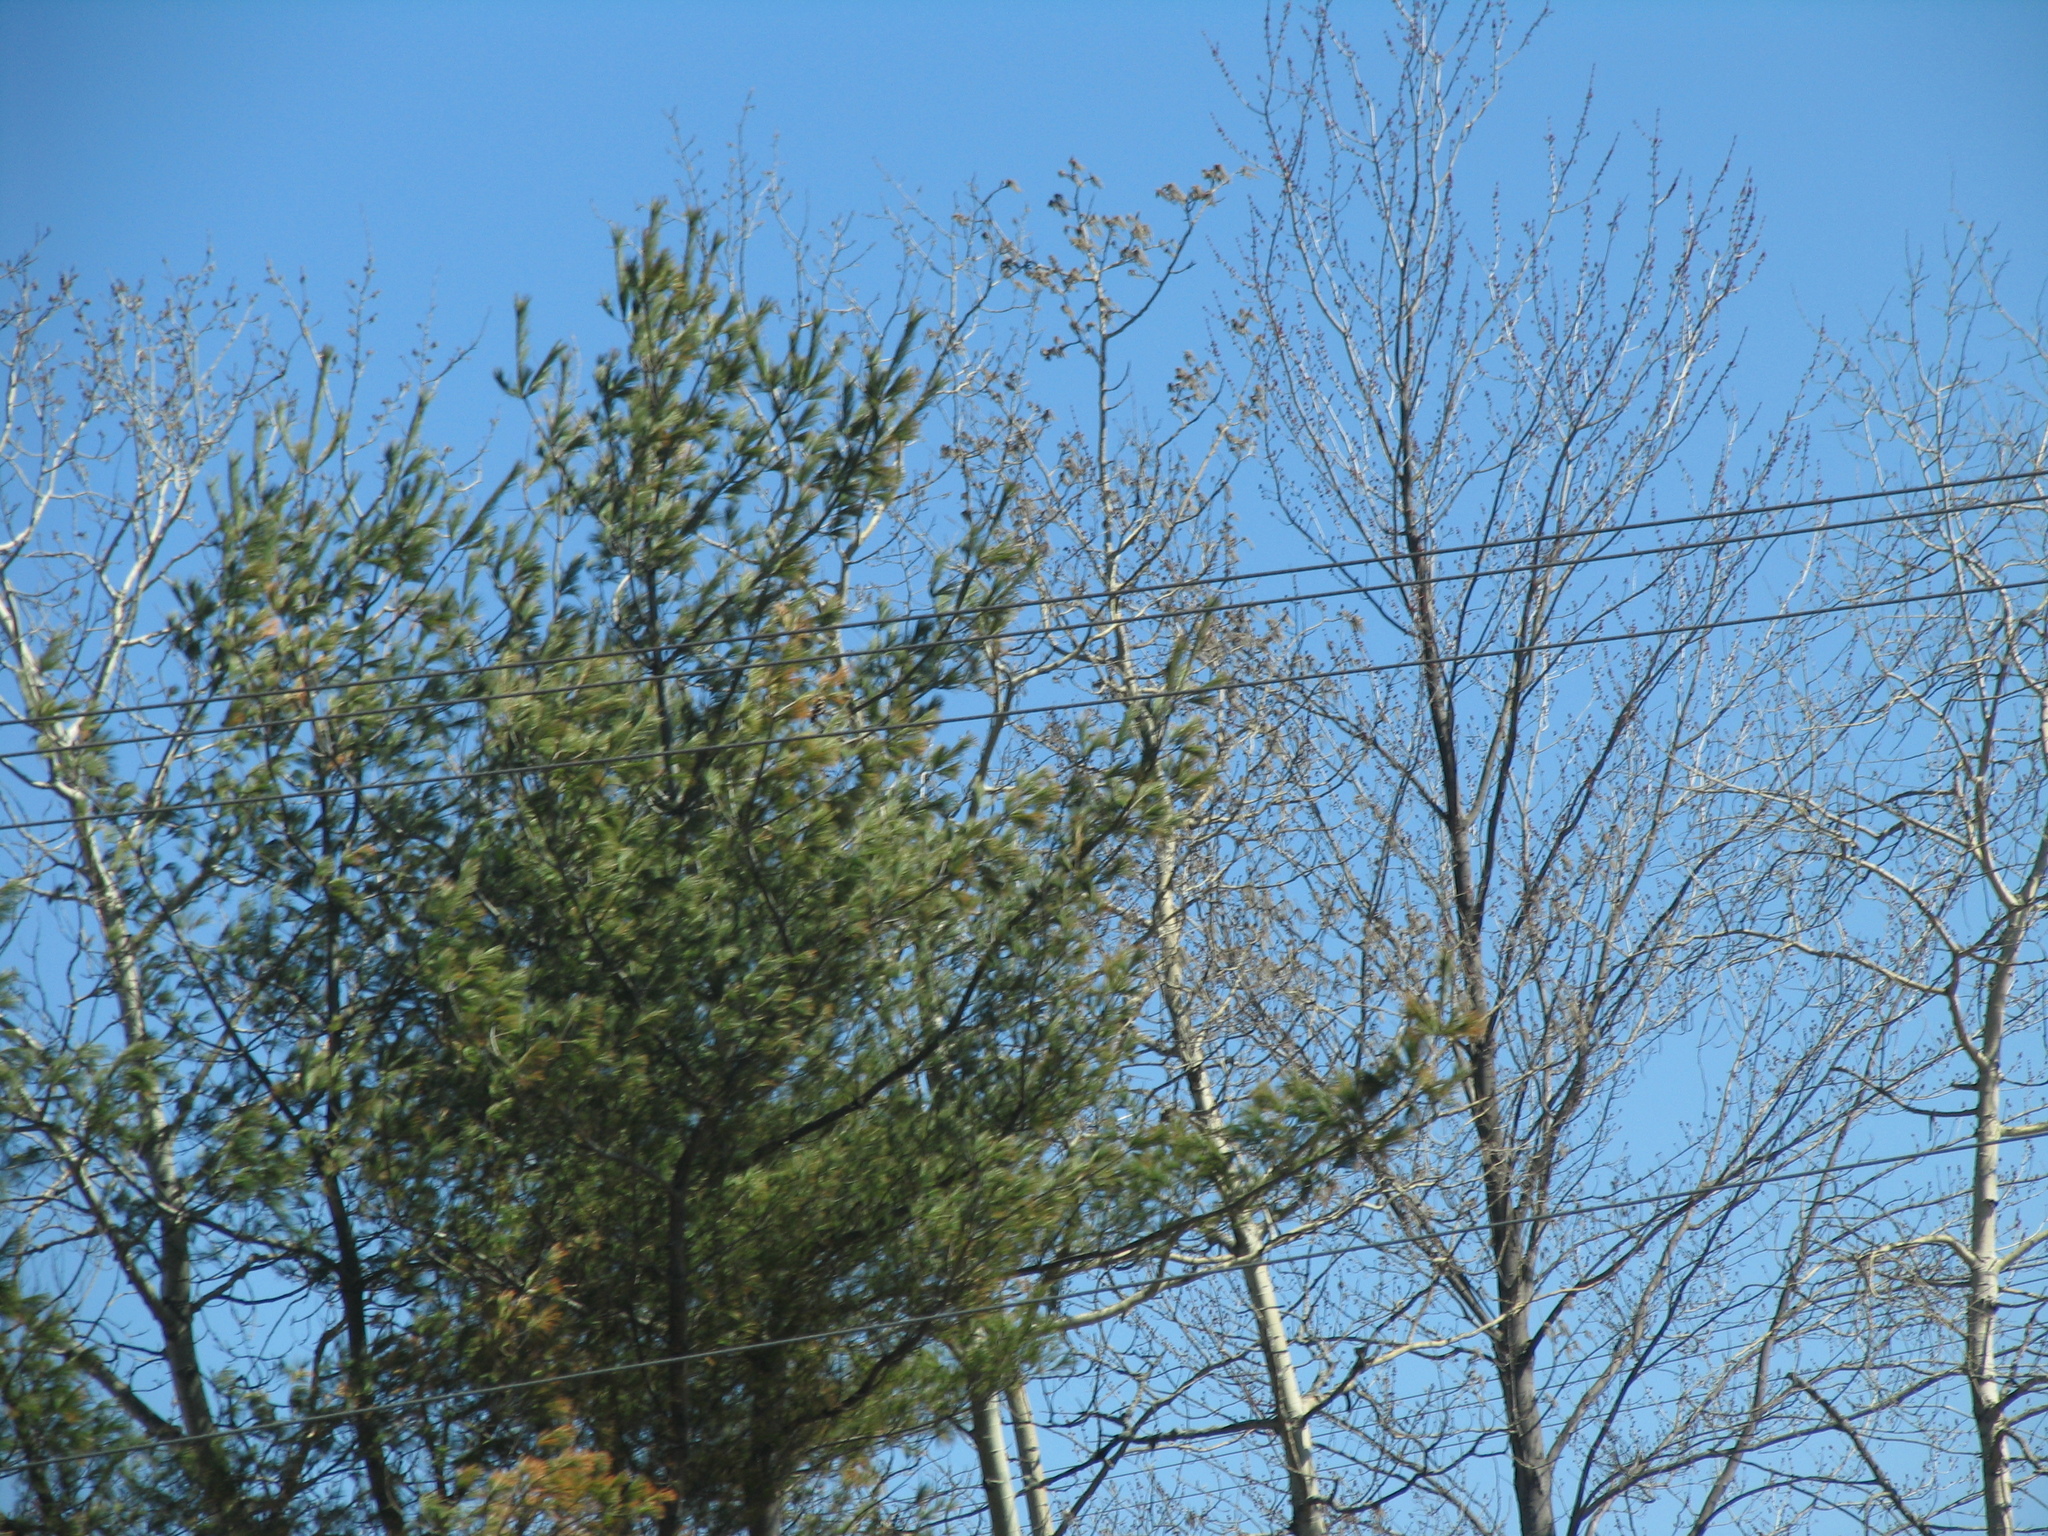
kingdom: Plantae
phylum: Tracheophyta
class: Pinopsida
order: Pinales
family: Pinaceae
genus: Pinus
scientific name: Pinus strobus
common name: Weymouth pine
